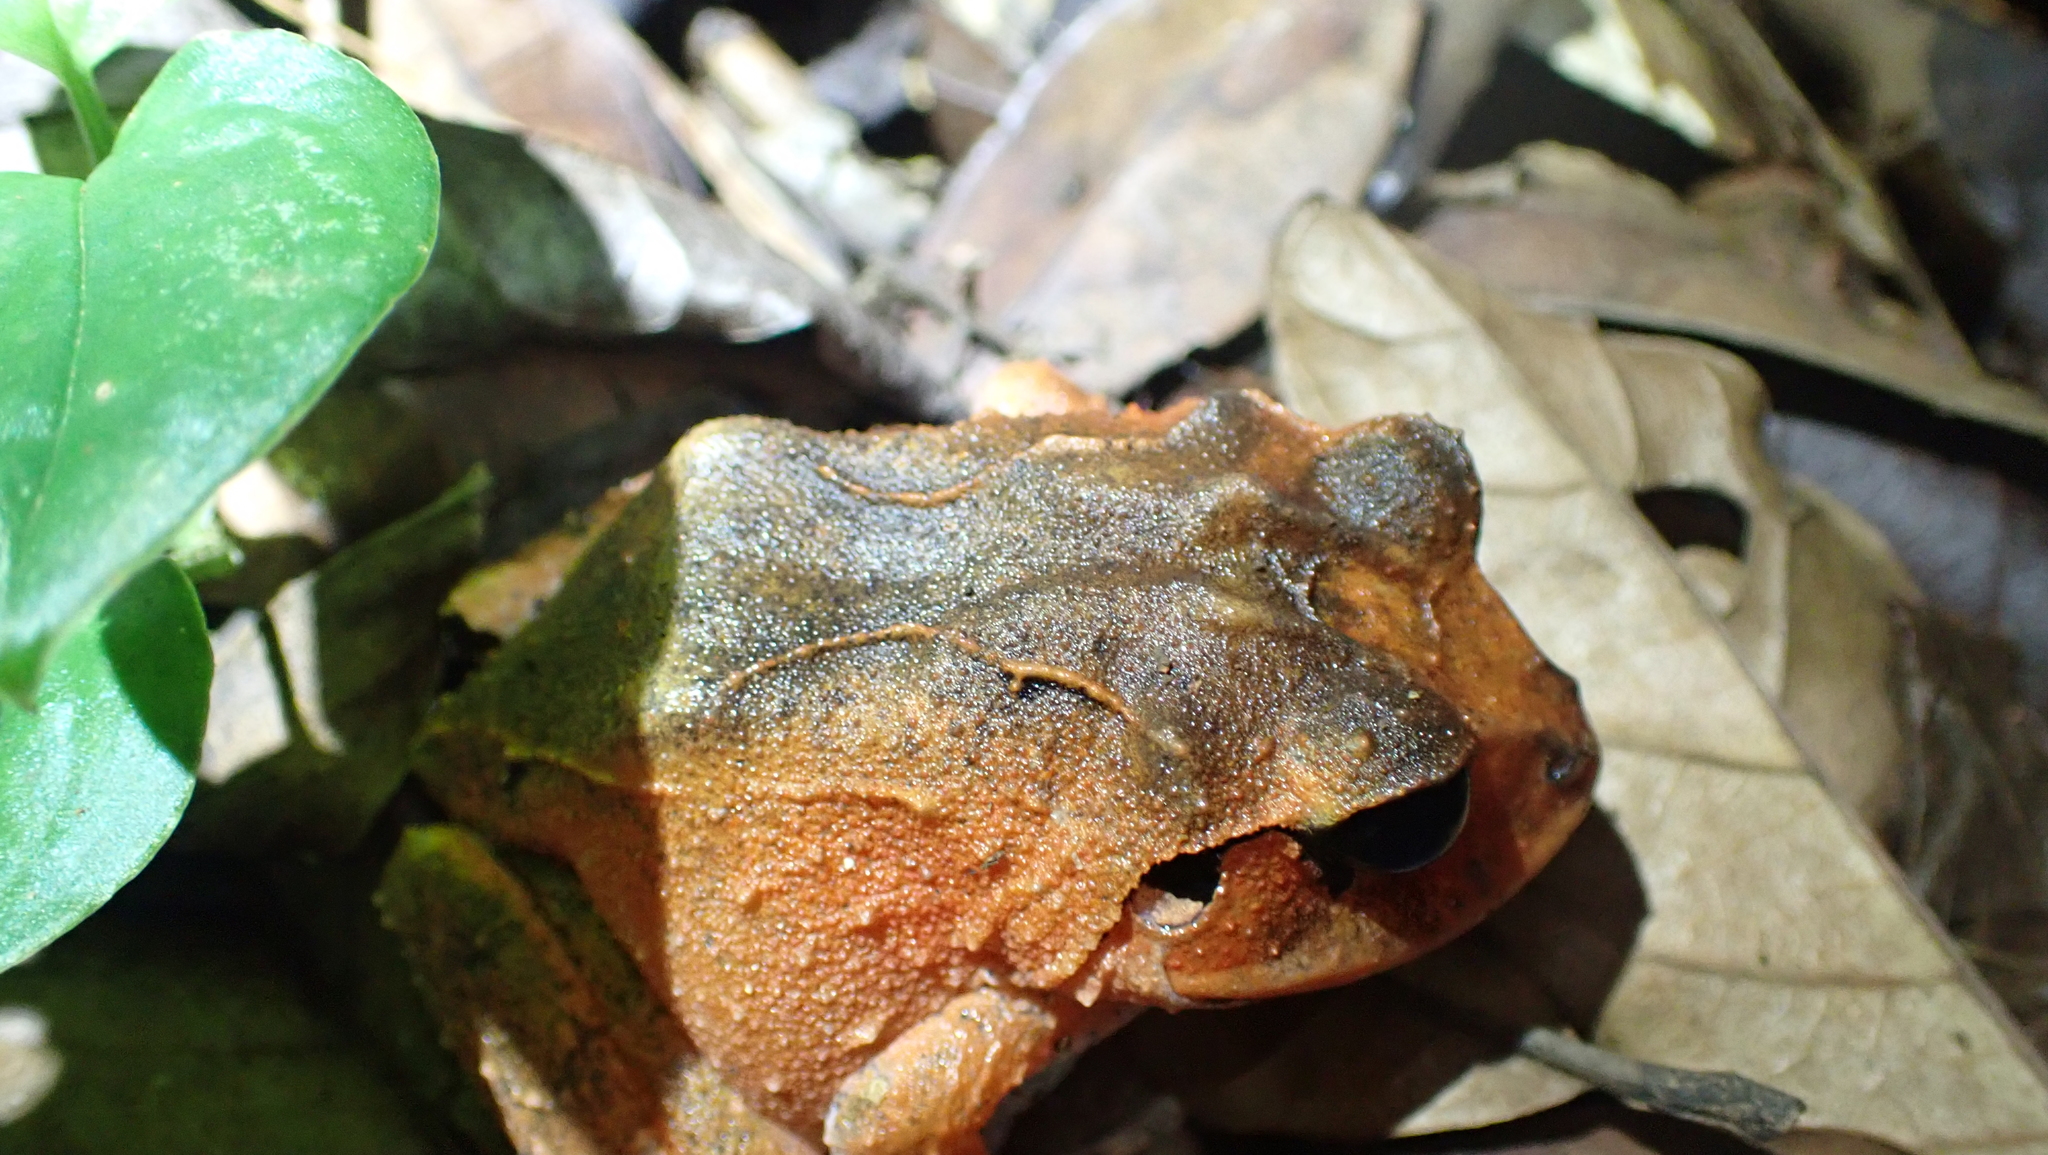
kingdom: Animalia
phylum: Chordata
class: Amphibia
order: Anura
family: Craugastoridae
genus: Craugastor
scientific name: Craugastor megacephalus
